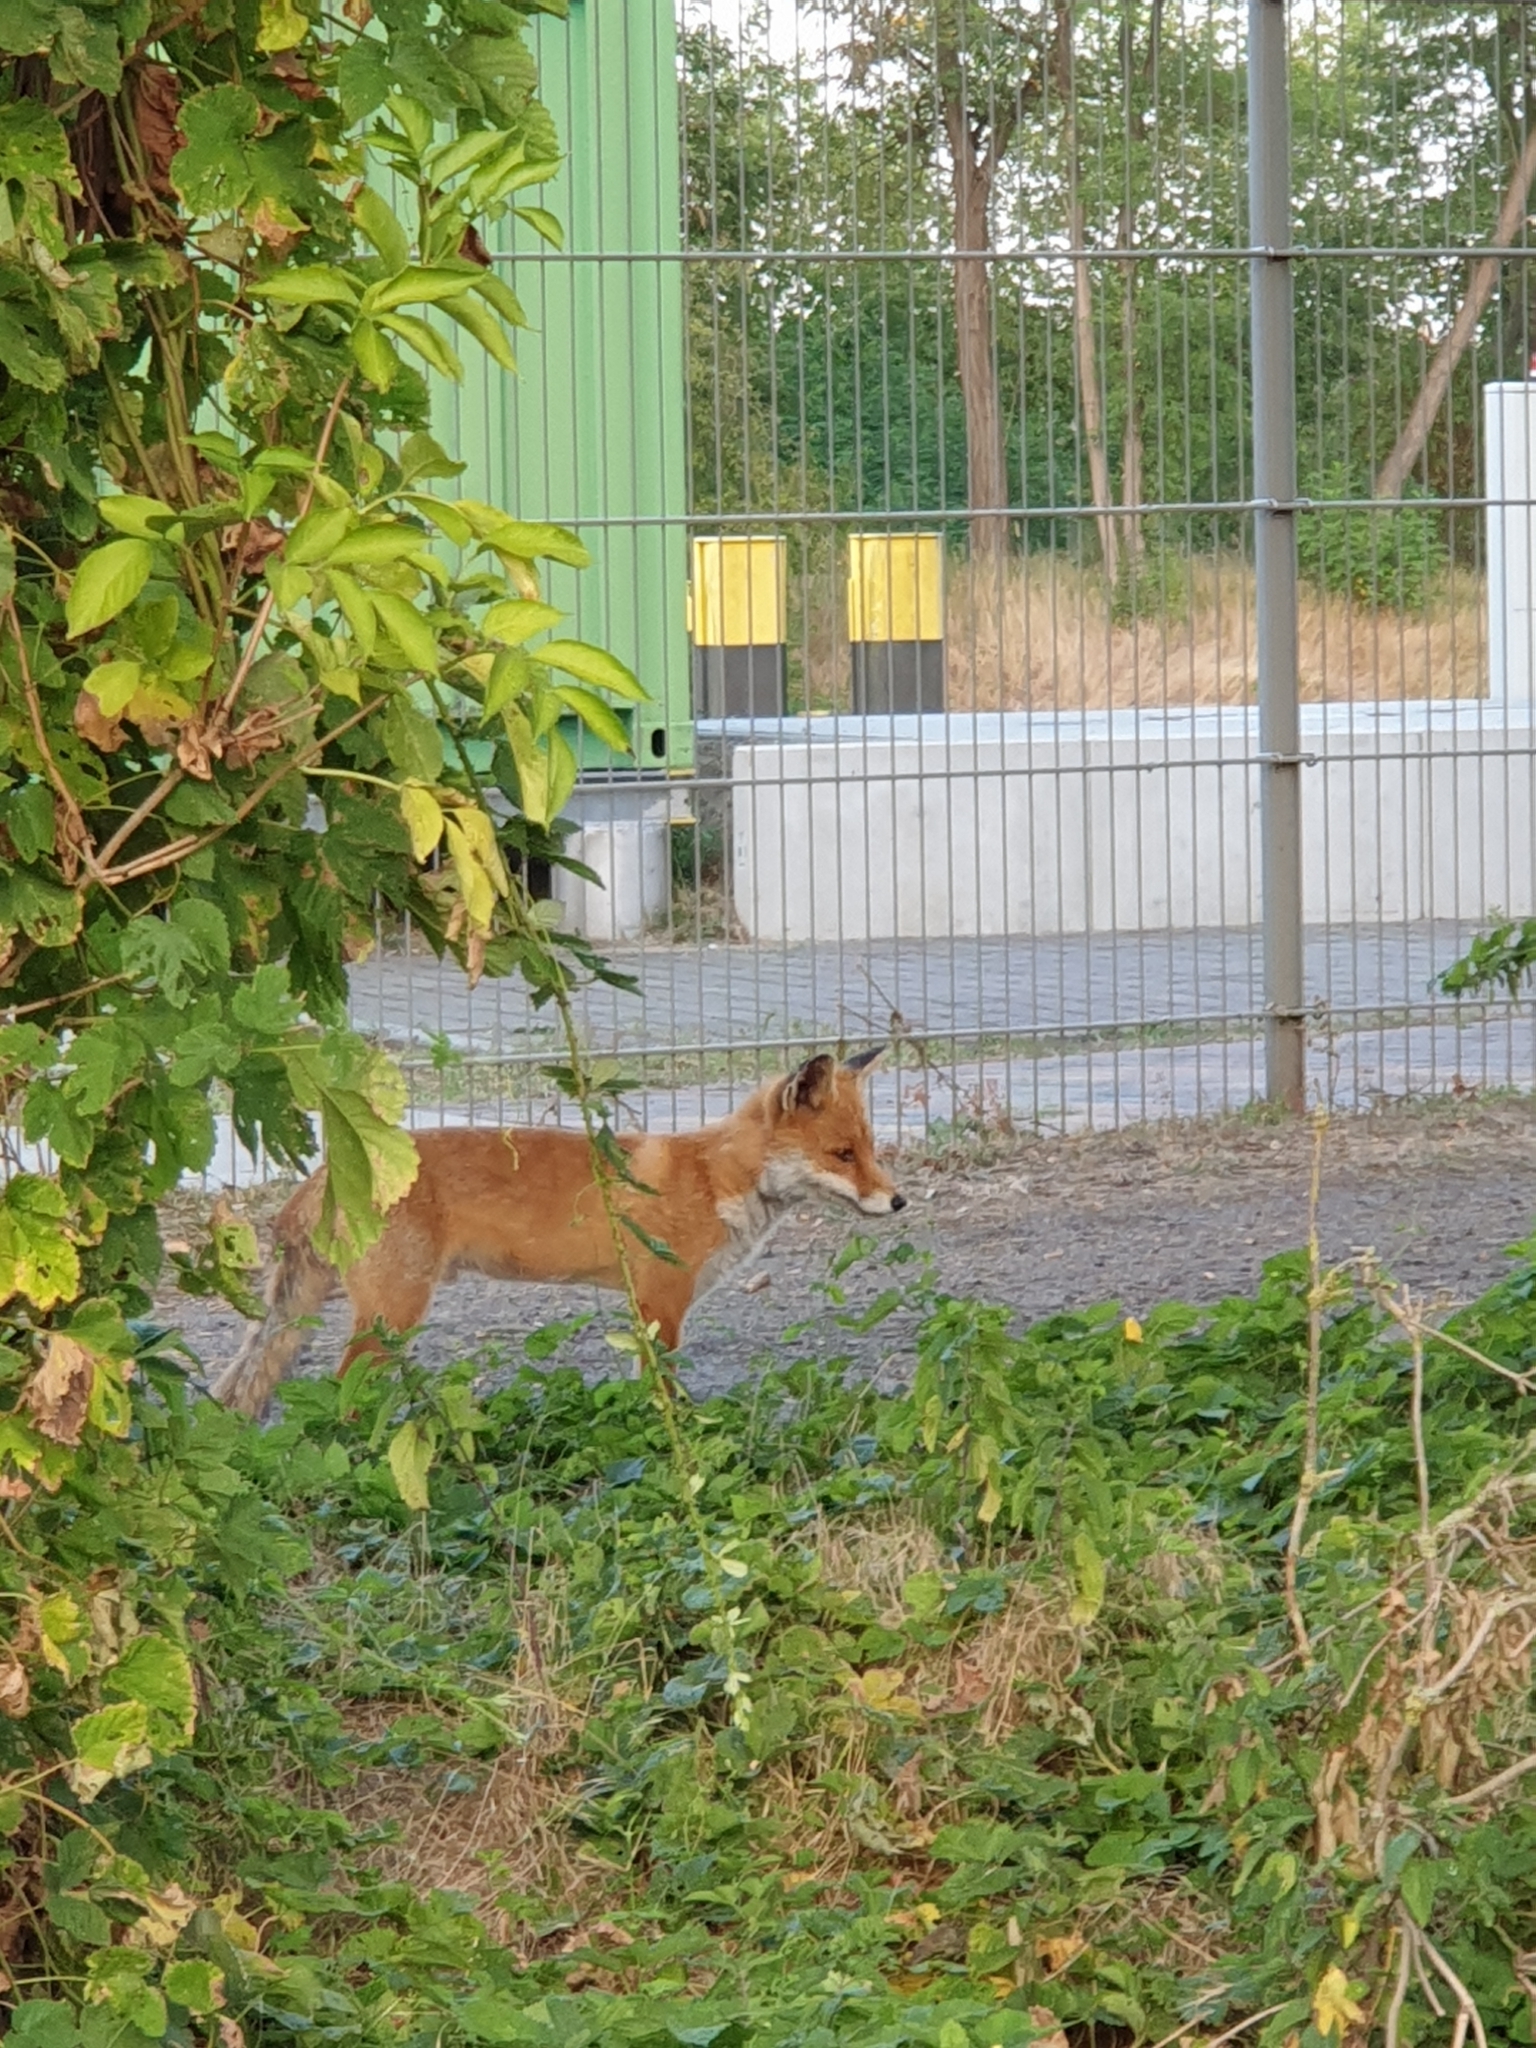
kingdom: Animalia
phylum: Chordata
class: Mammalia
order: Carnivora
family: Canidae
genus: Vulpes
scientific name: Vulpes vulpes
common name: Red fox
